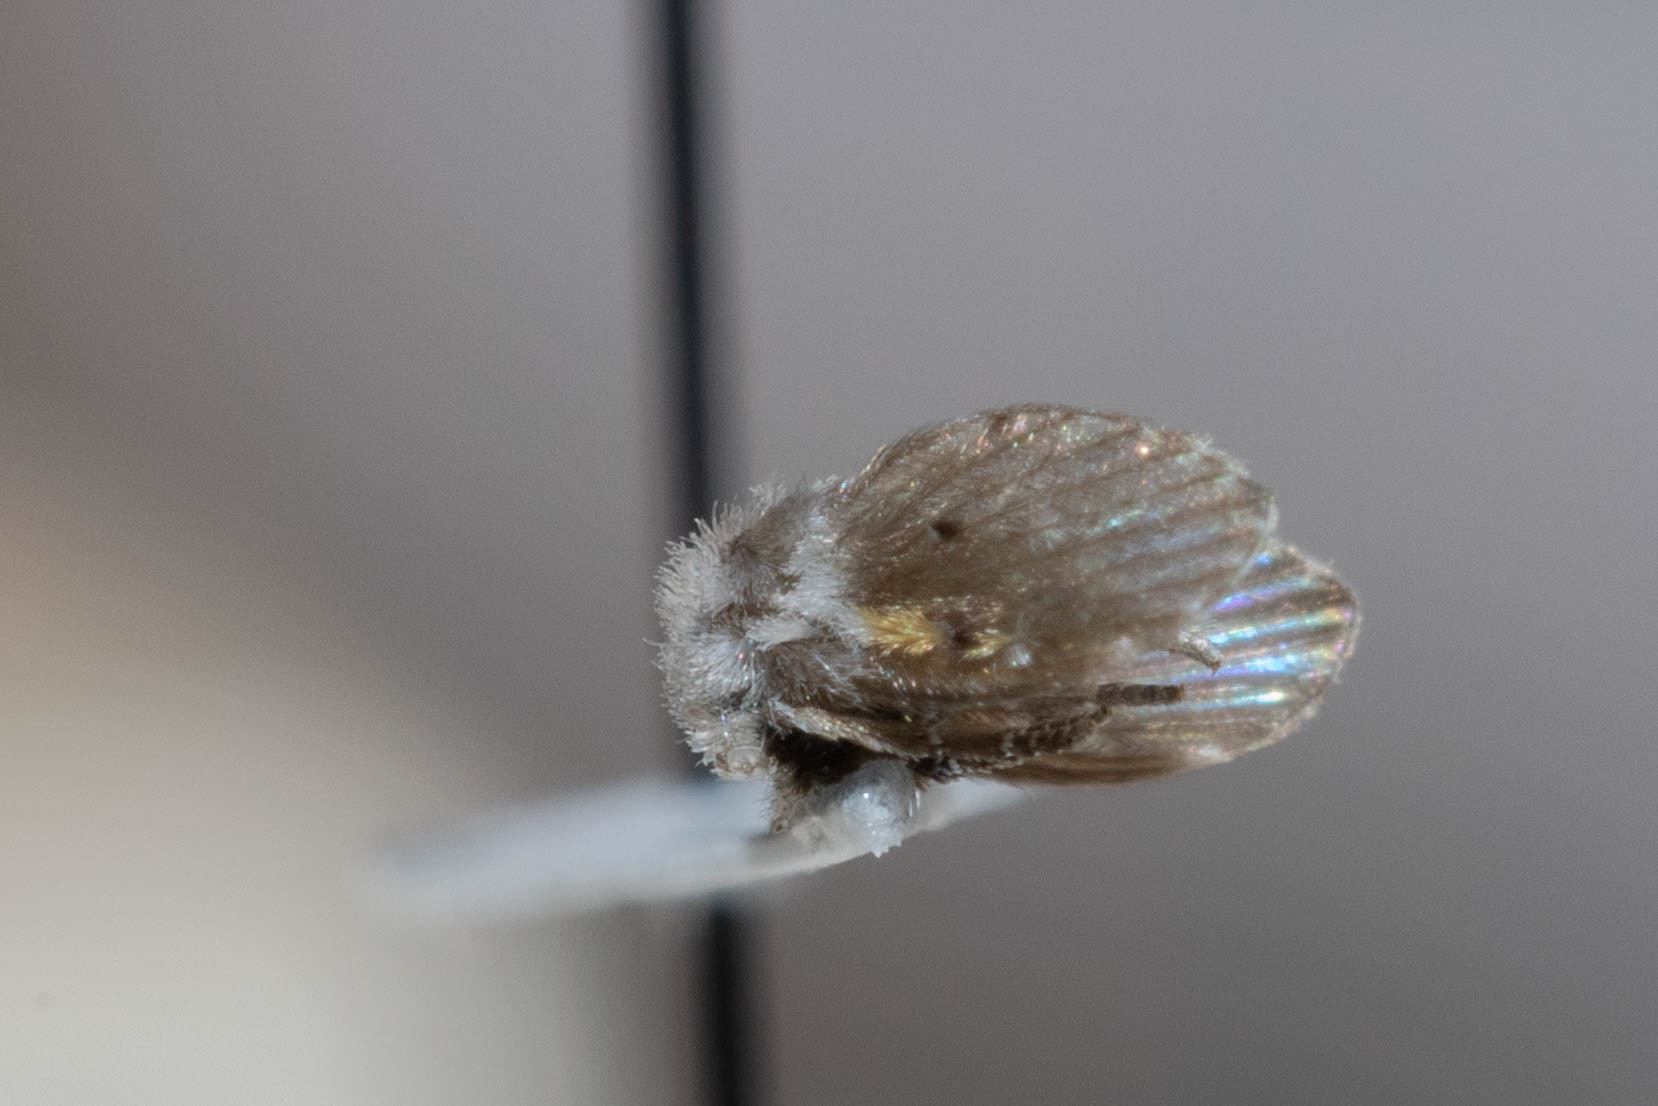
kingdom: Animalia
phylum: Arthropoda
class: Insecta
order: Diptera
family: Psychodidae
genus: Clogmia
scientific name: Clogmia albipunctatus
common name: White-spotted moth fly
